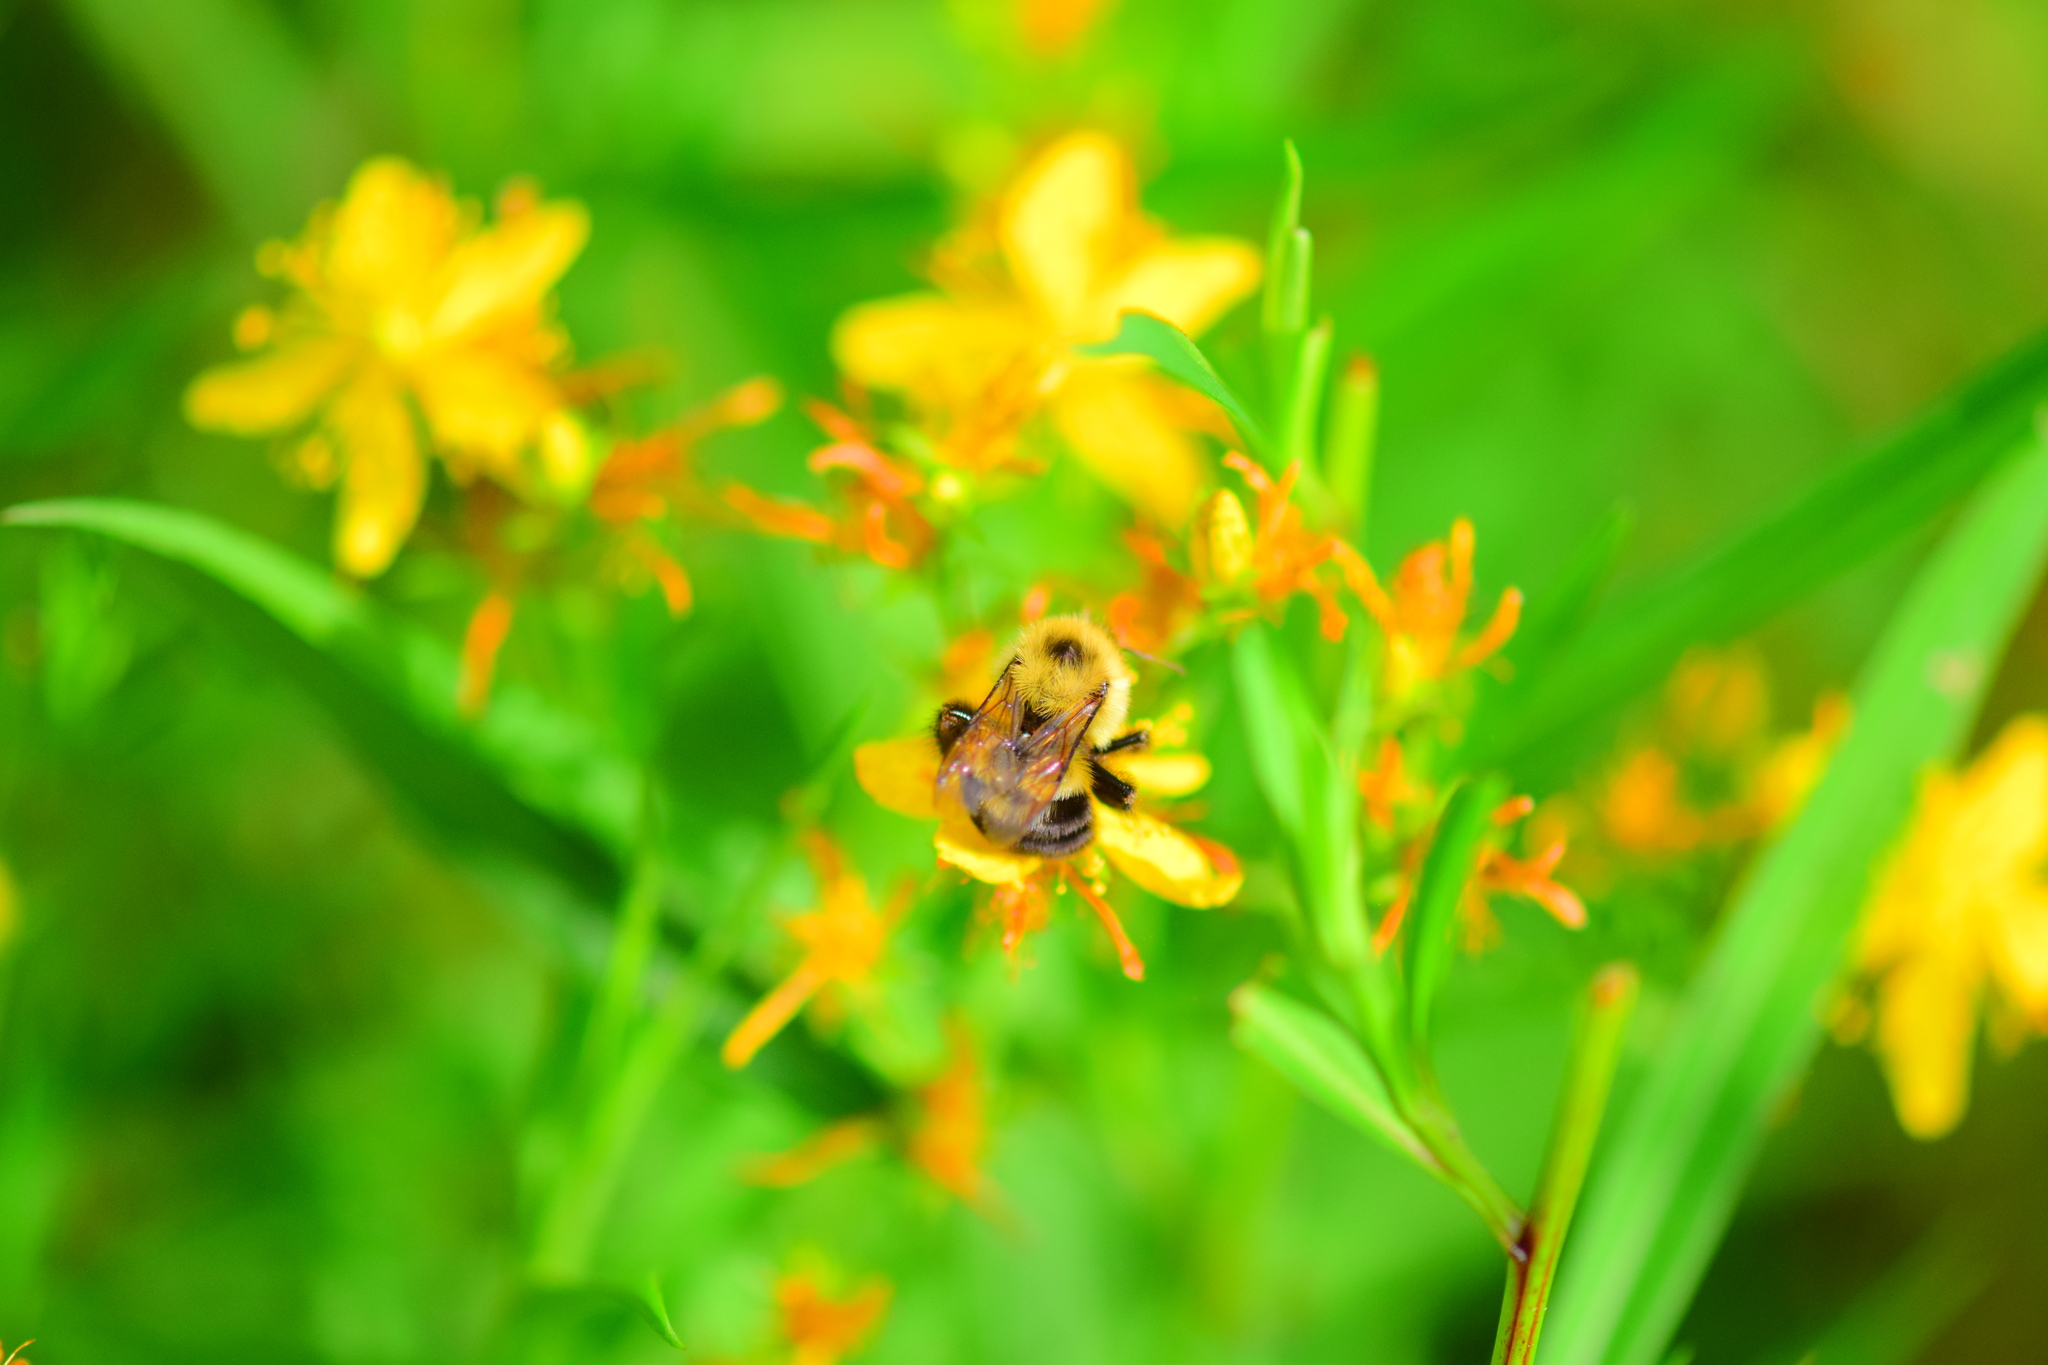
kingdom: Animalia
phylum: Arthropoda
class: Insecta
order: Hymenoptera
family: Apidae
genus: Bombus
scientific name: Bombus bimaculatus
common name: Two-spotted bumble bee
